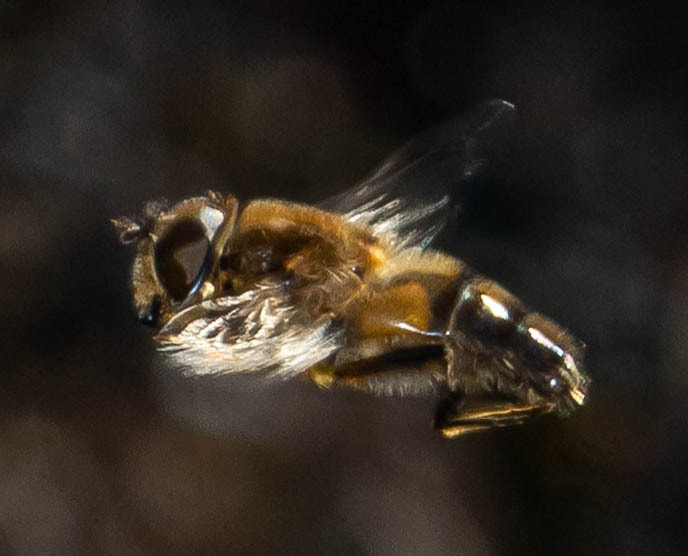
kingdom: Animalia
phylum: Arthropoda
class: Insecta
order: Diptera
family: Syrphidae
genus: Eristalis
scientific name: Eristalis
